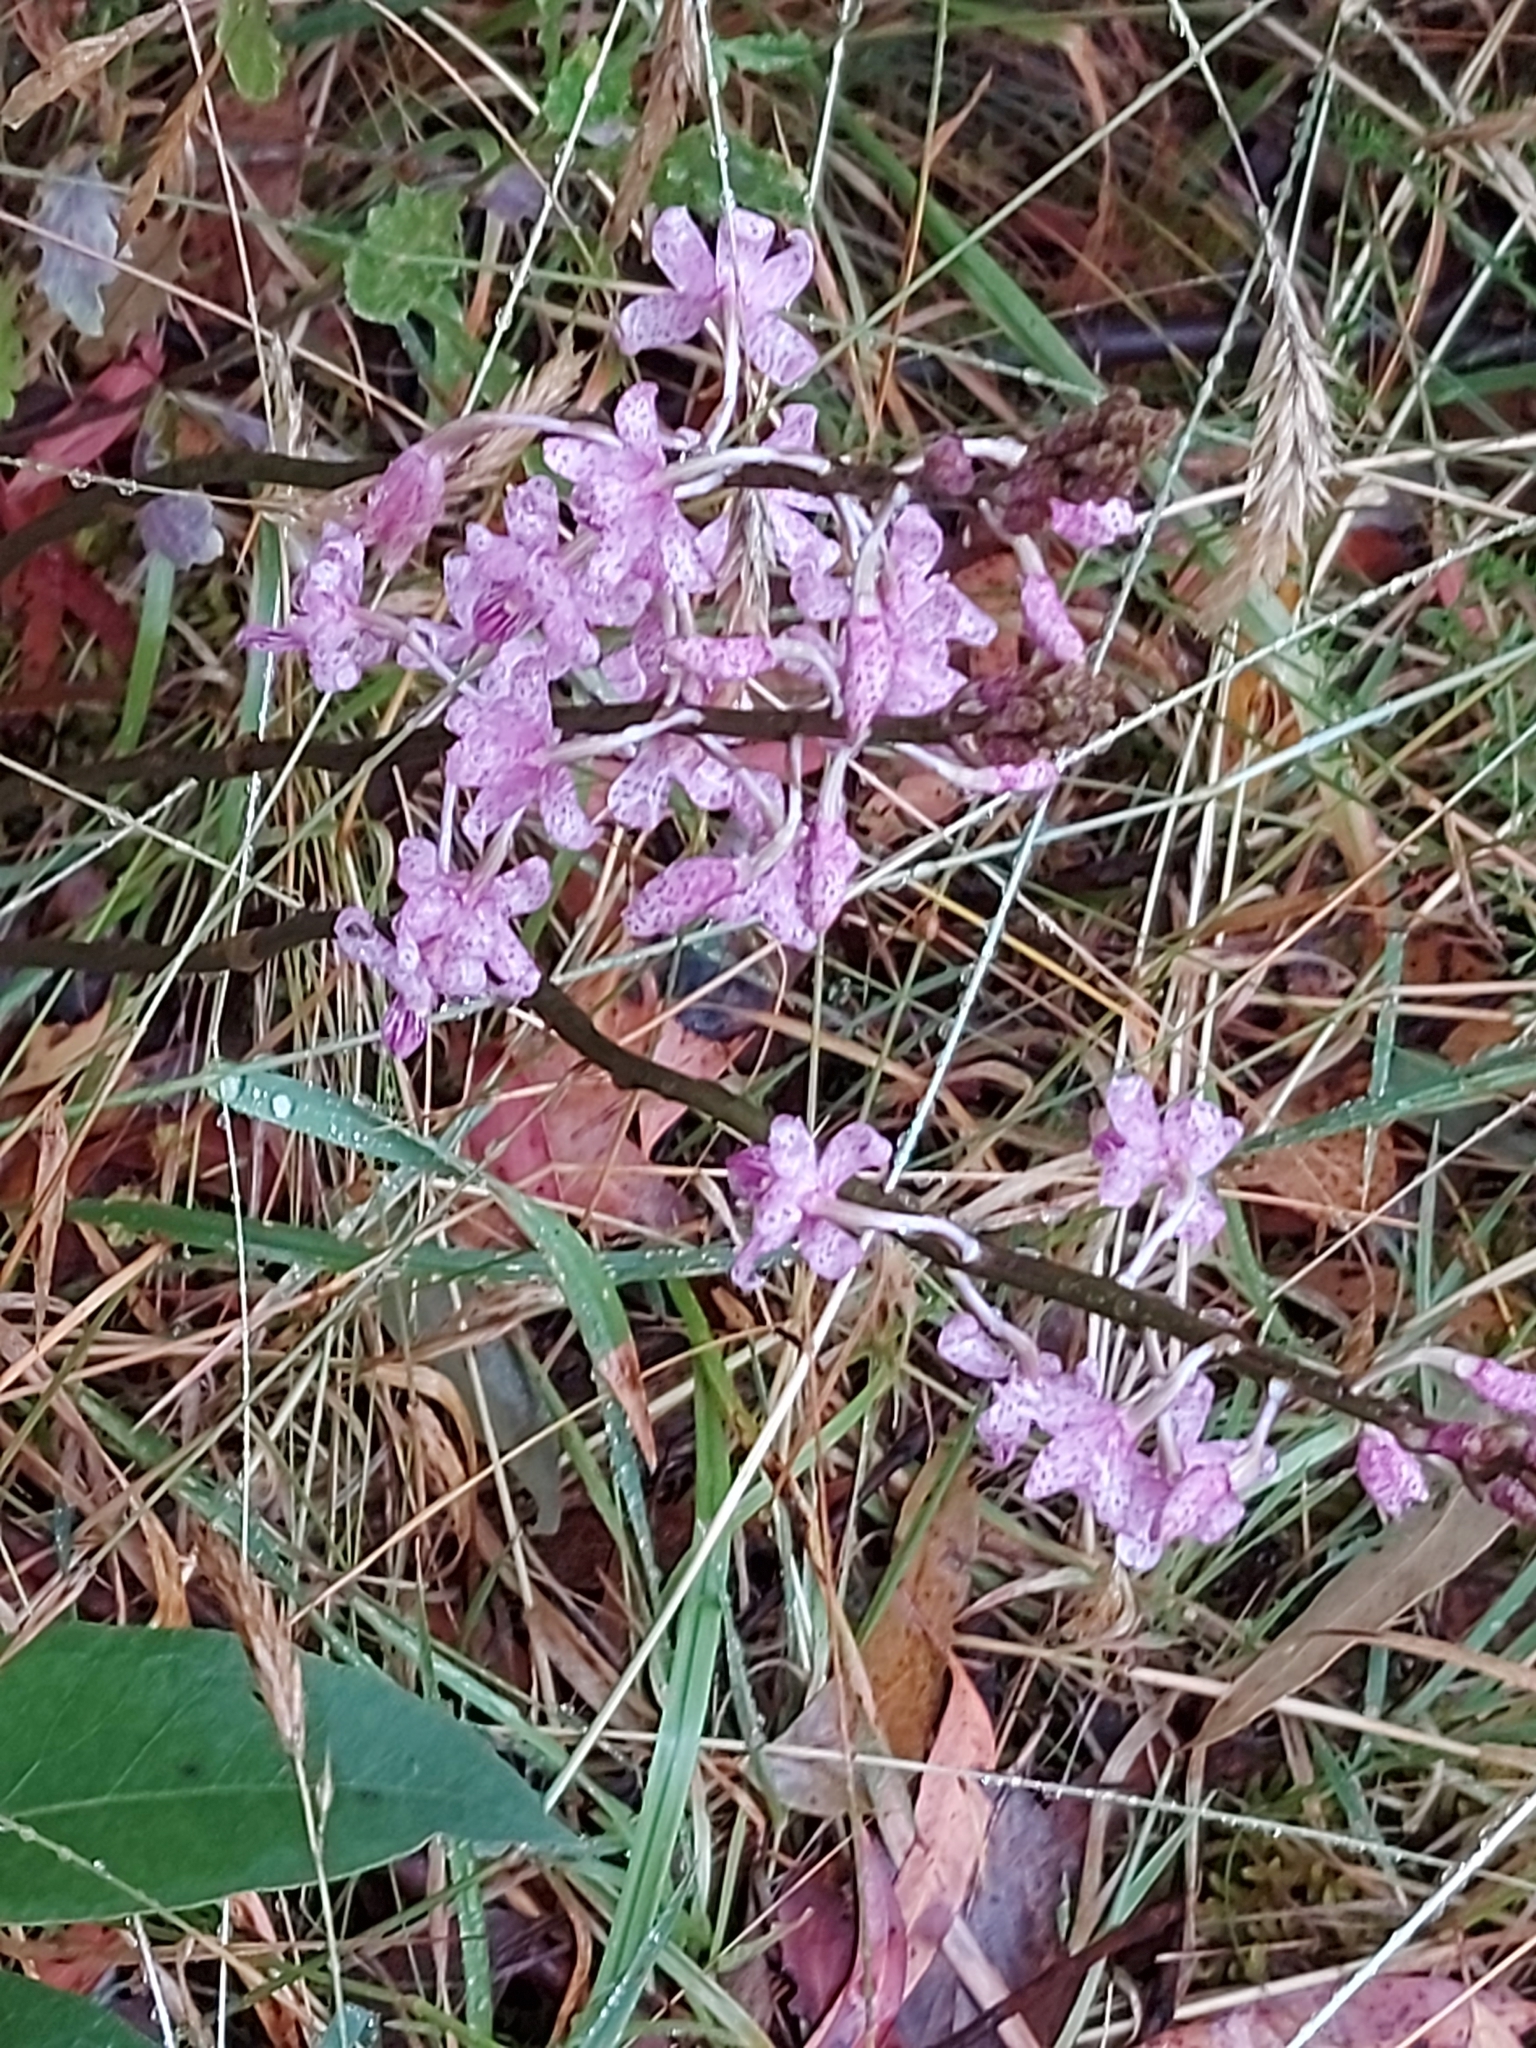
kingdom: Plantae
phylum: Tracheophyta
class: Liliopsida
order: Asparagales
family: Orchidaceae
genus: Dipodium
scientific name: Dipodium roseum
